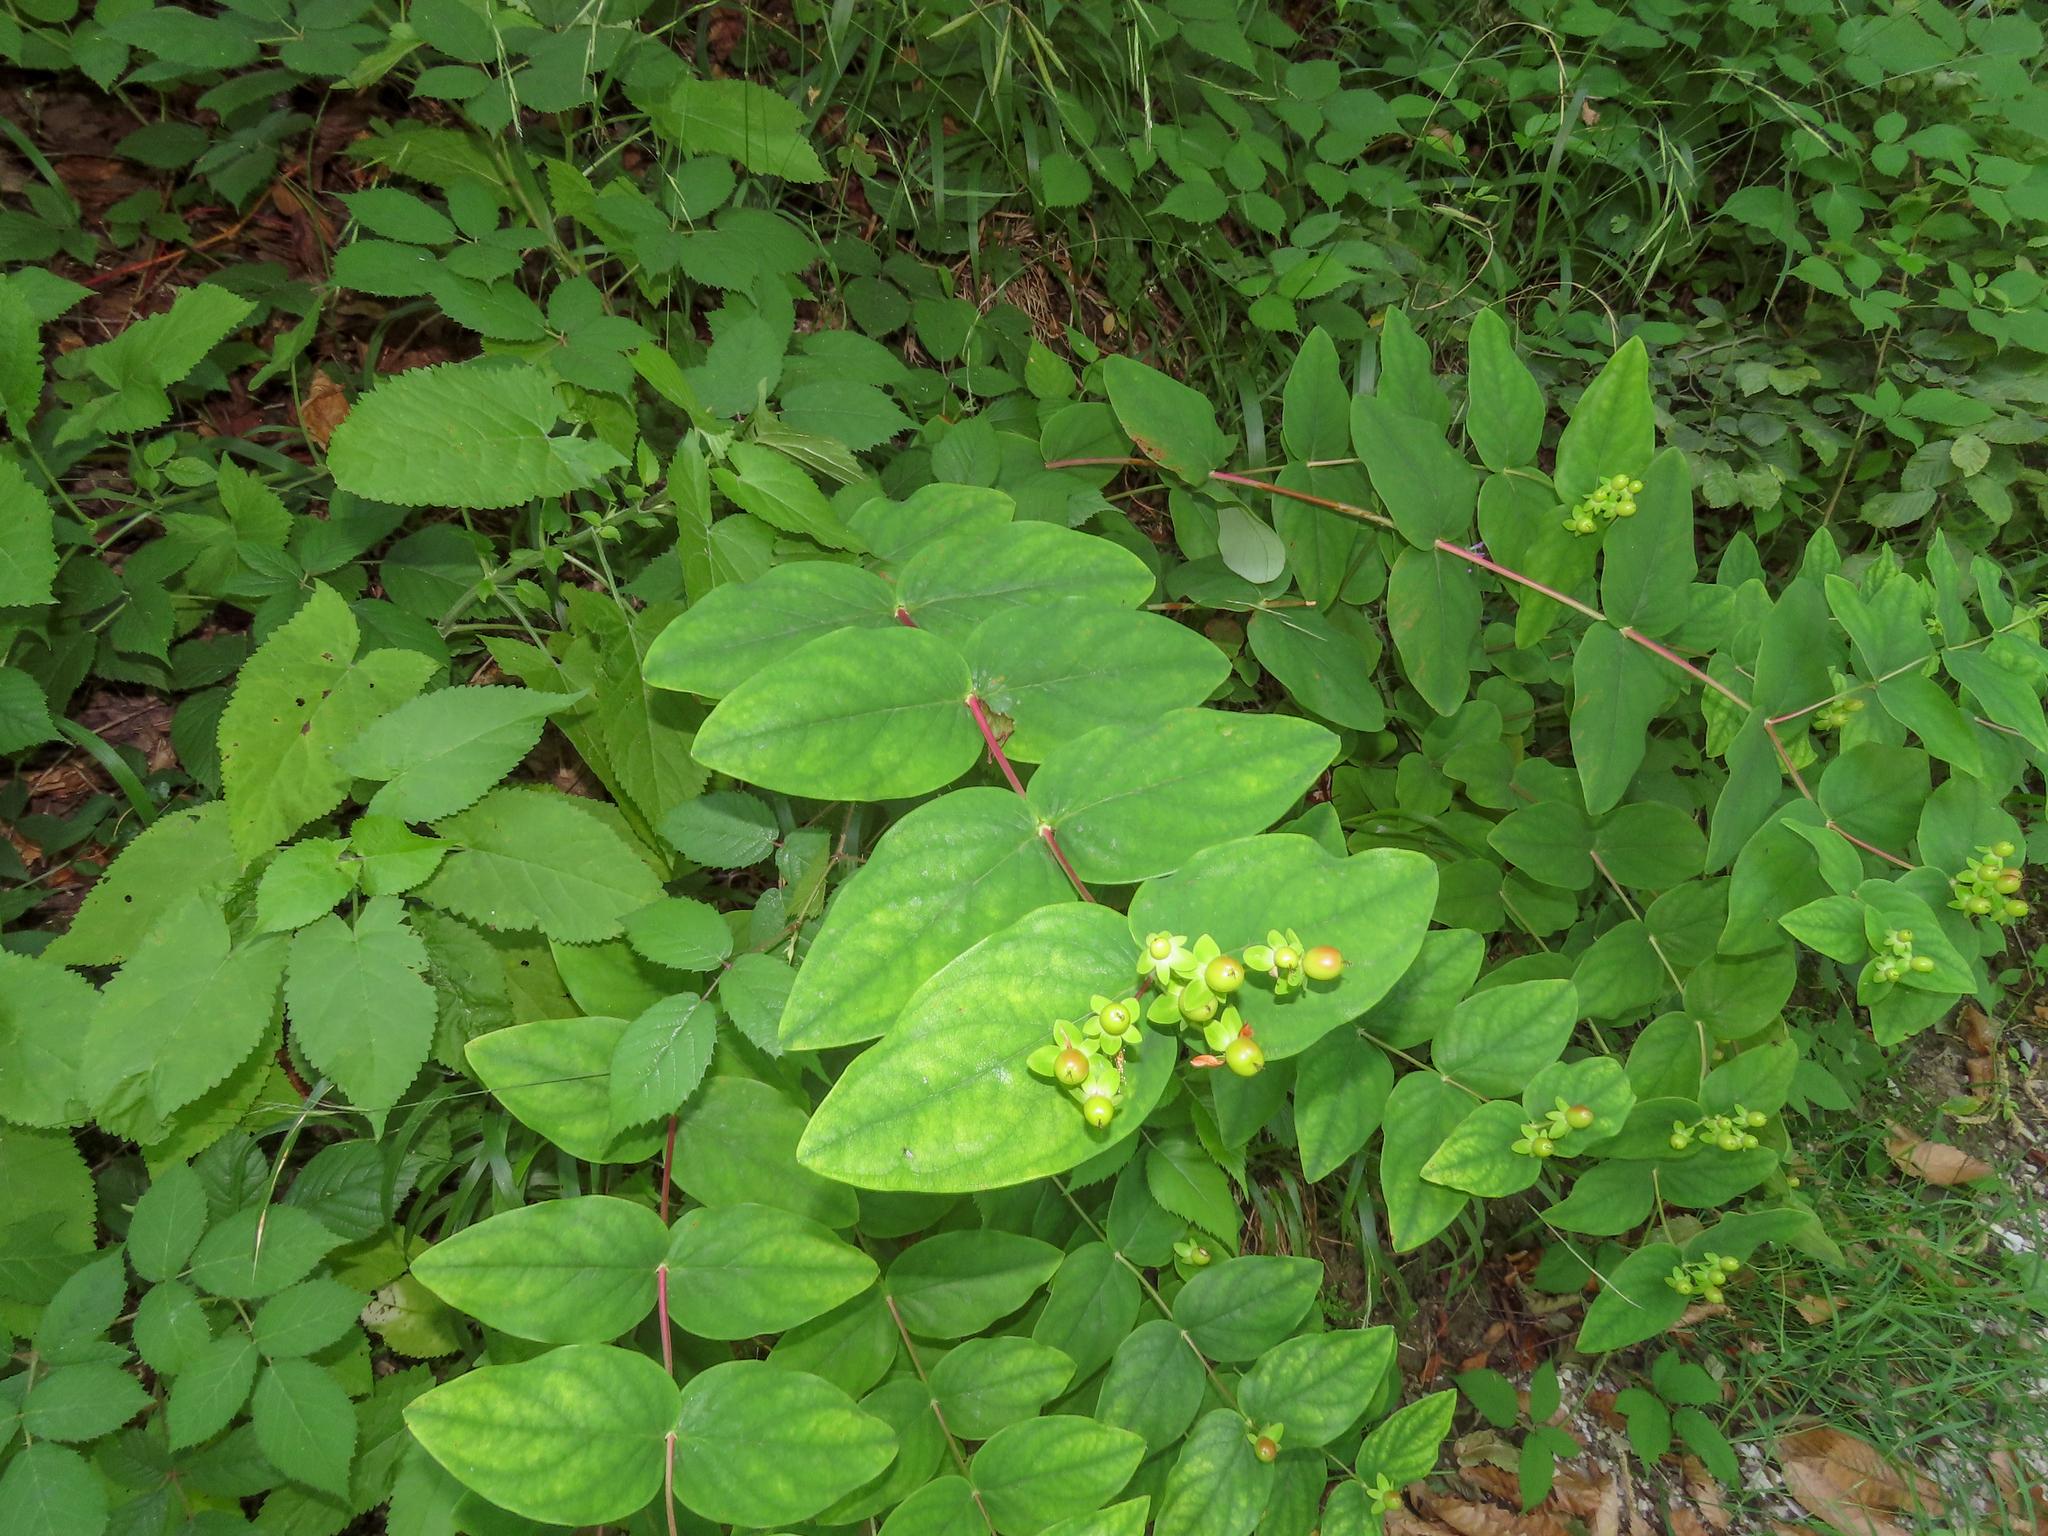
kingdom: Plantae
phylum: Tracheophyta
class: Magnoliopsida
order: Malpighiales
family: Hypericaceae
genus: Hypericum
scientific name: Hypericum androsaemum
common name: Sweet-amber
